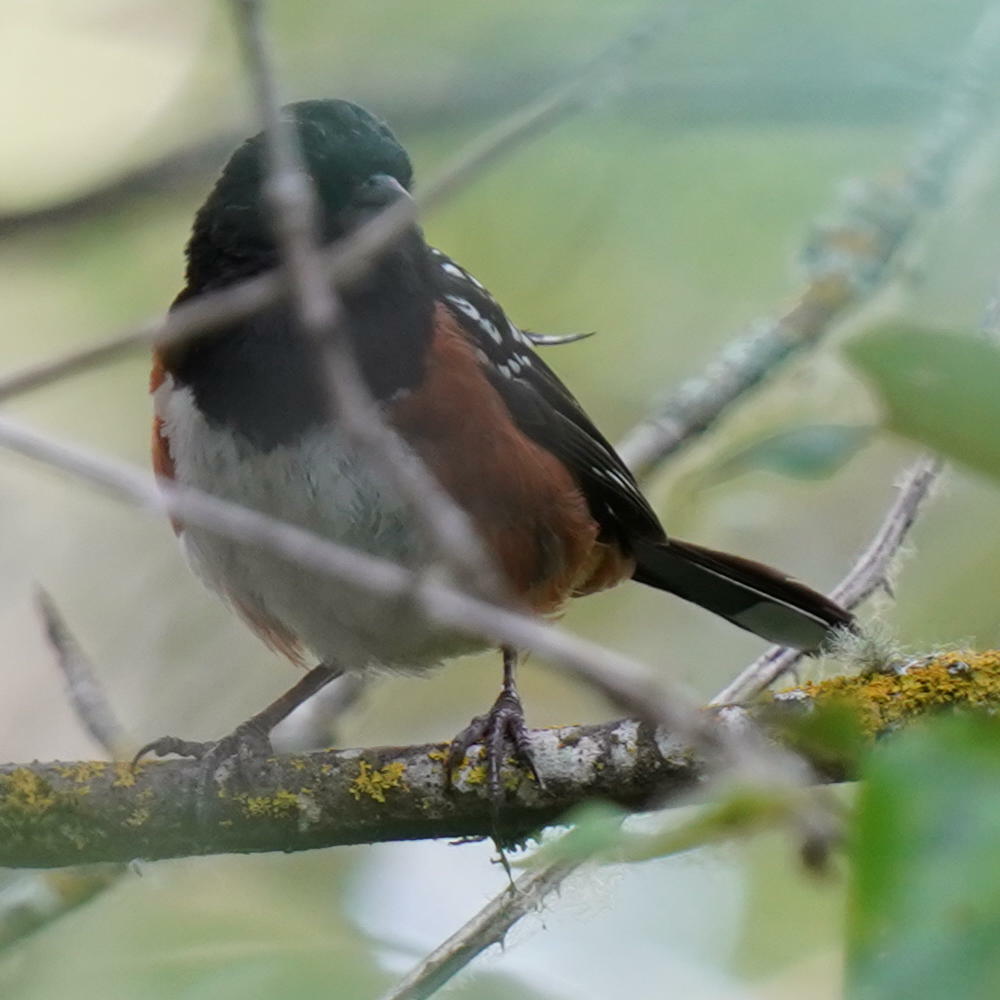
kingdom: Animalia
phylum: Chordata
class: Aves
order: Passeriformes
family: Passerellidae
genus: Pipilo
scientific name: Pipilo maculatus
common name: Spotted towhee
